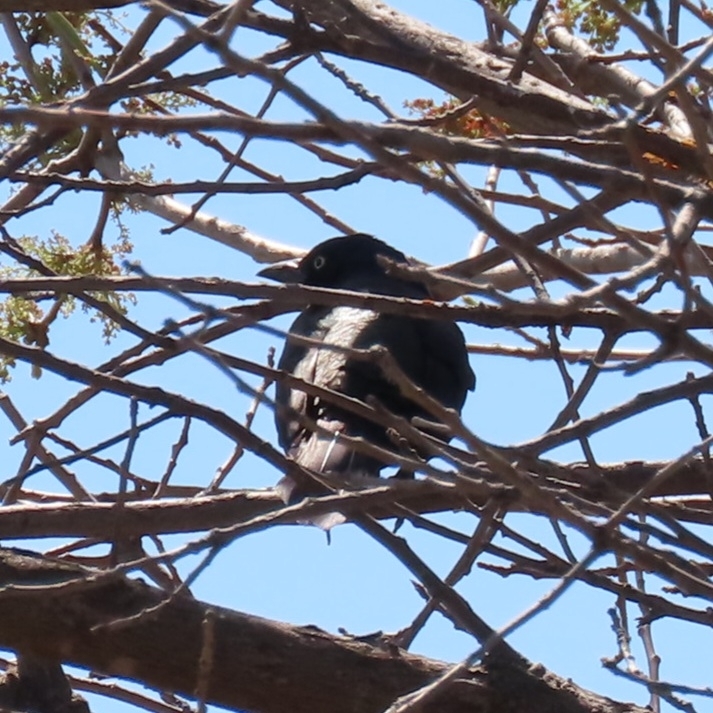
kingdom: Animalia
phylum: Chordata
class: Aves
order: Passeriformes
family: Icteridae
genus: Quiscalus
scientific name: Quiscalus quiscula
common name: Common grackle
